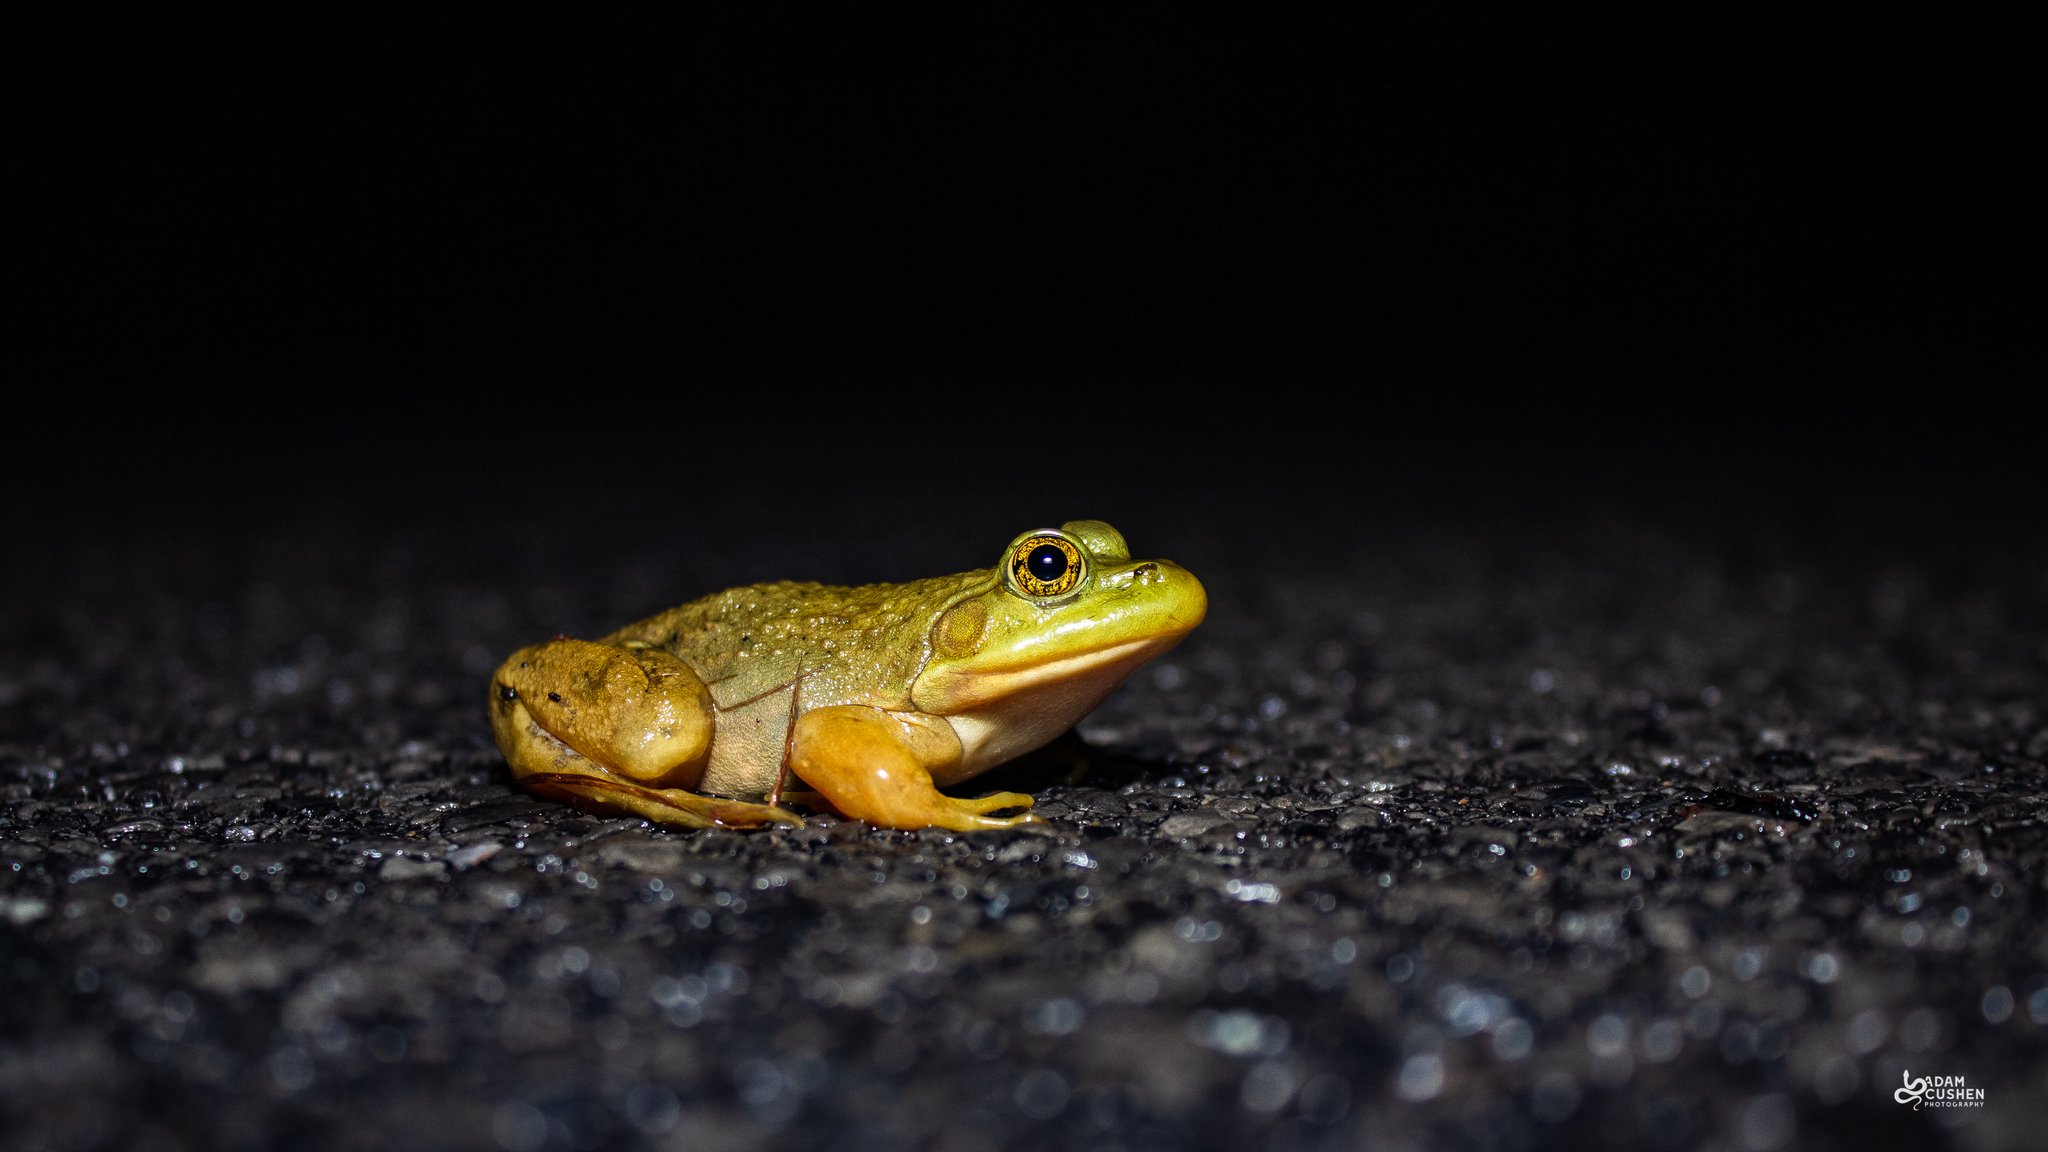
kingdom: Animalia
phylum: Chordata
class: Amphibia
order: Anura
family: Ranidae
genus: Lithobates
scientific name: Lithobates catesbeianus
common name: American bullfrog
